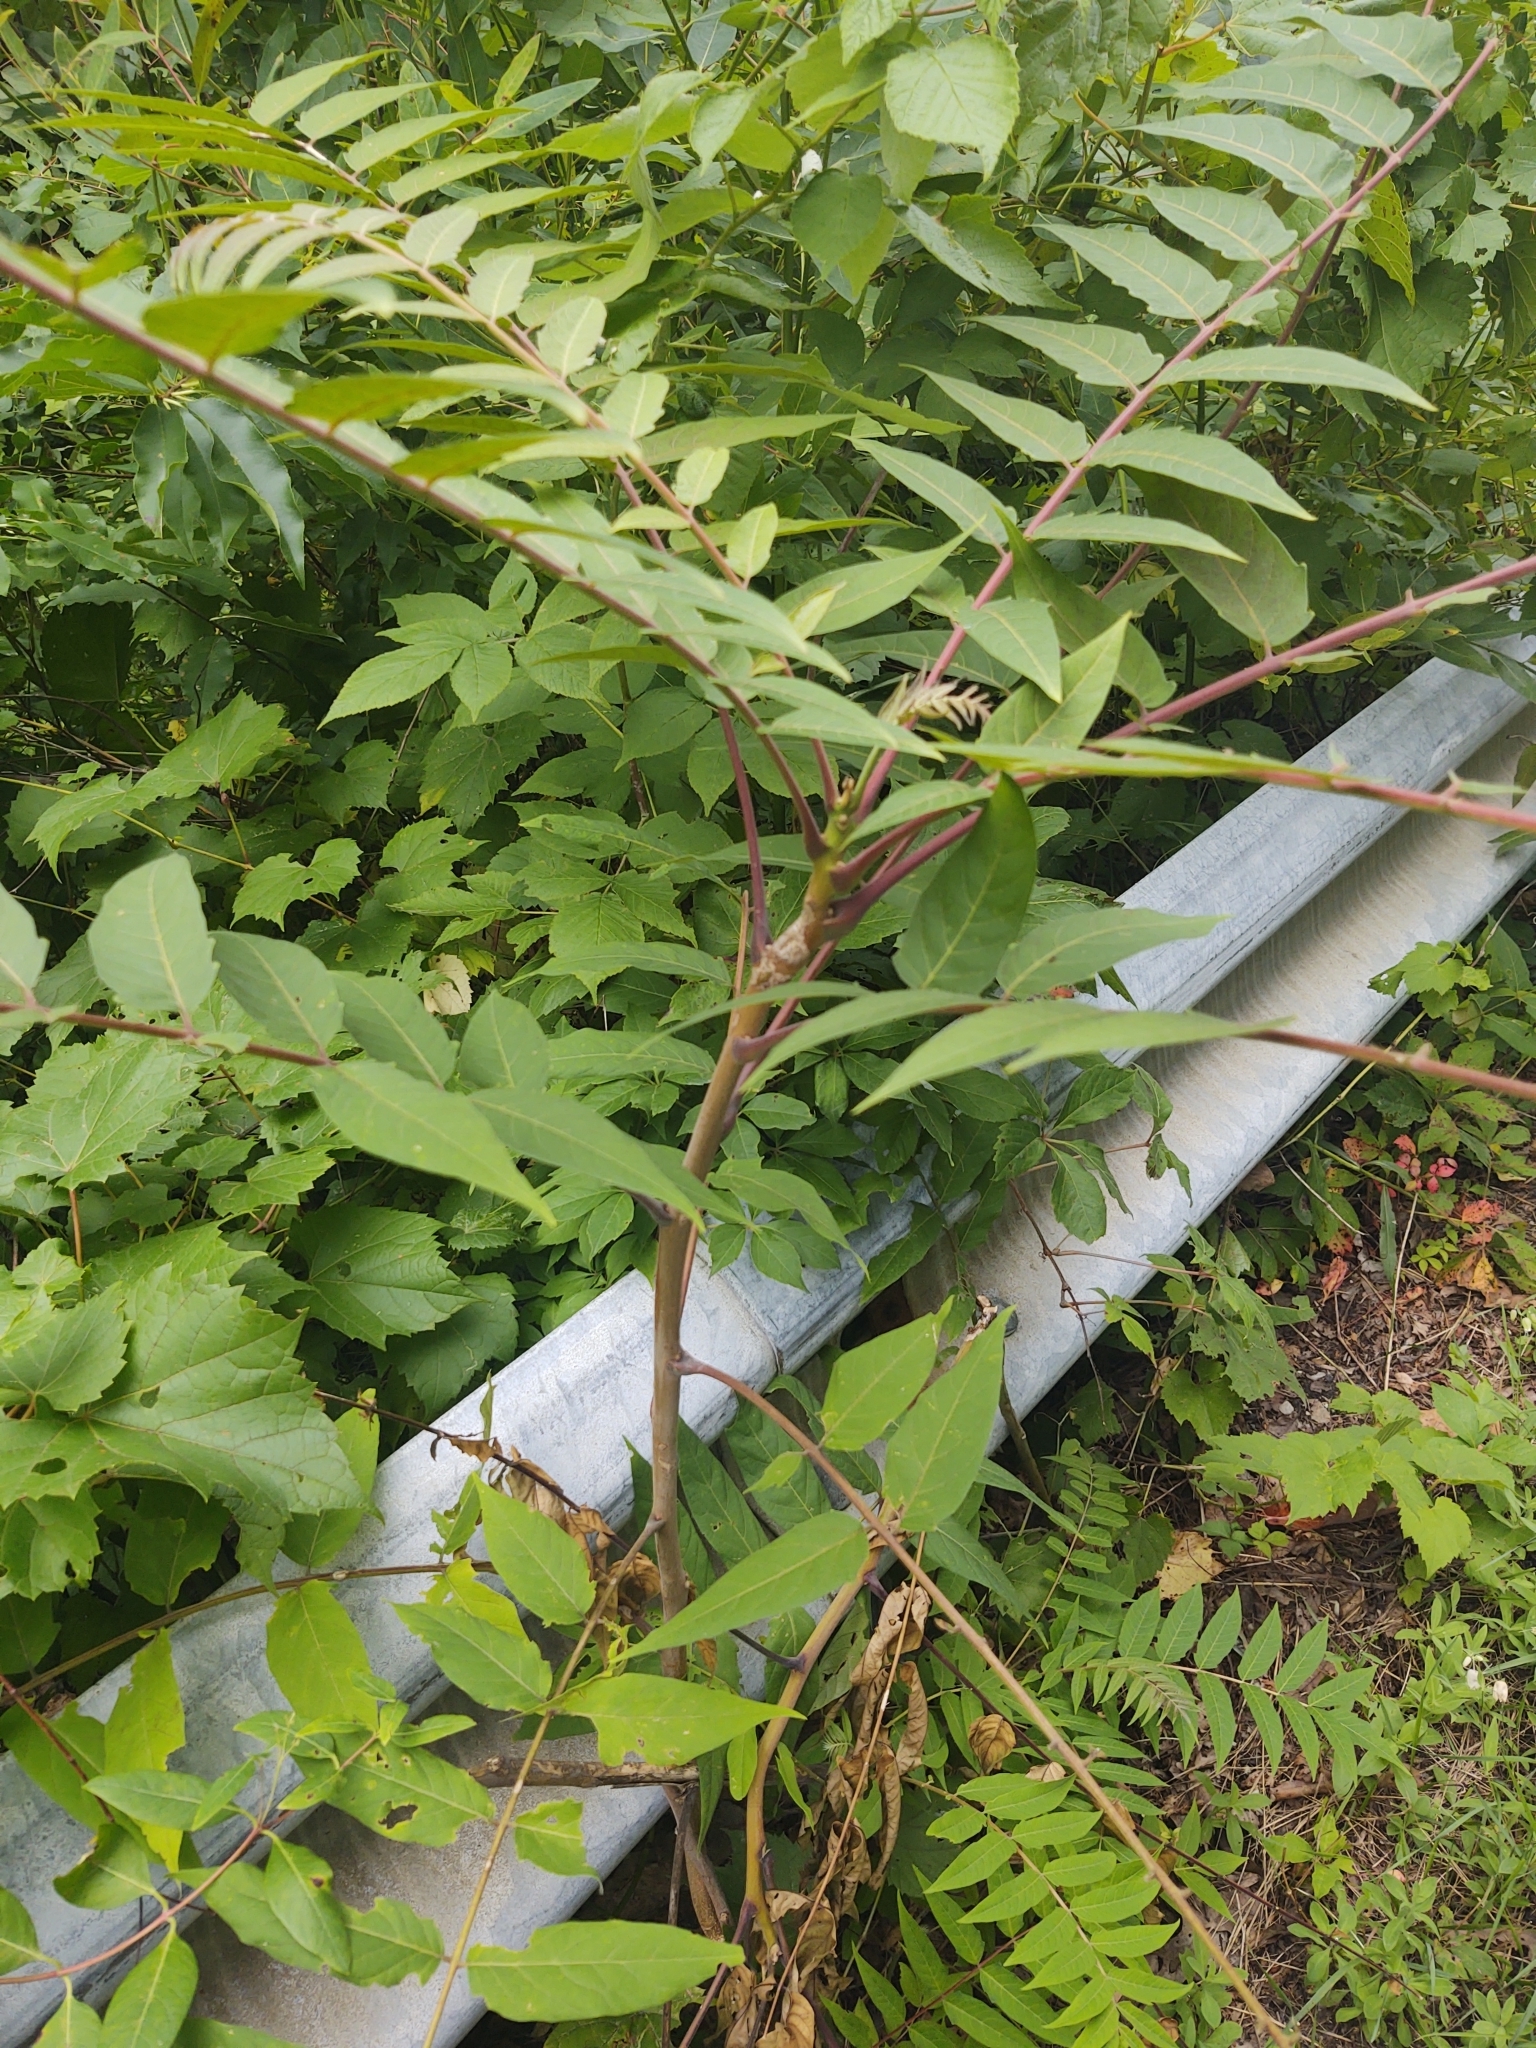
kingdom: Plantae
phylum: Tracheophyta
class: Magnoliopsida
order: Sapindales
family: Simaroubaceae
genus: Ailanthus
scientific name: Ailanthus altissima
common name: Tree-of-heaven
